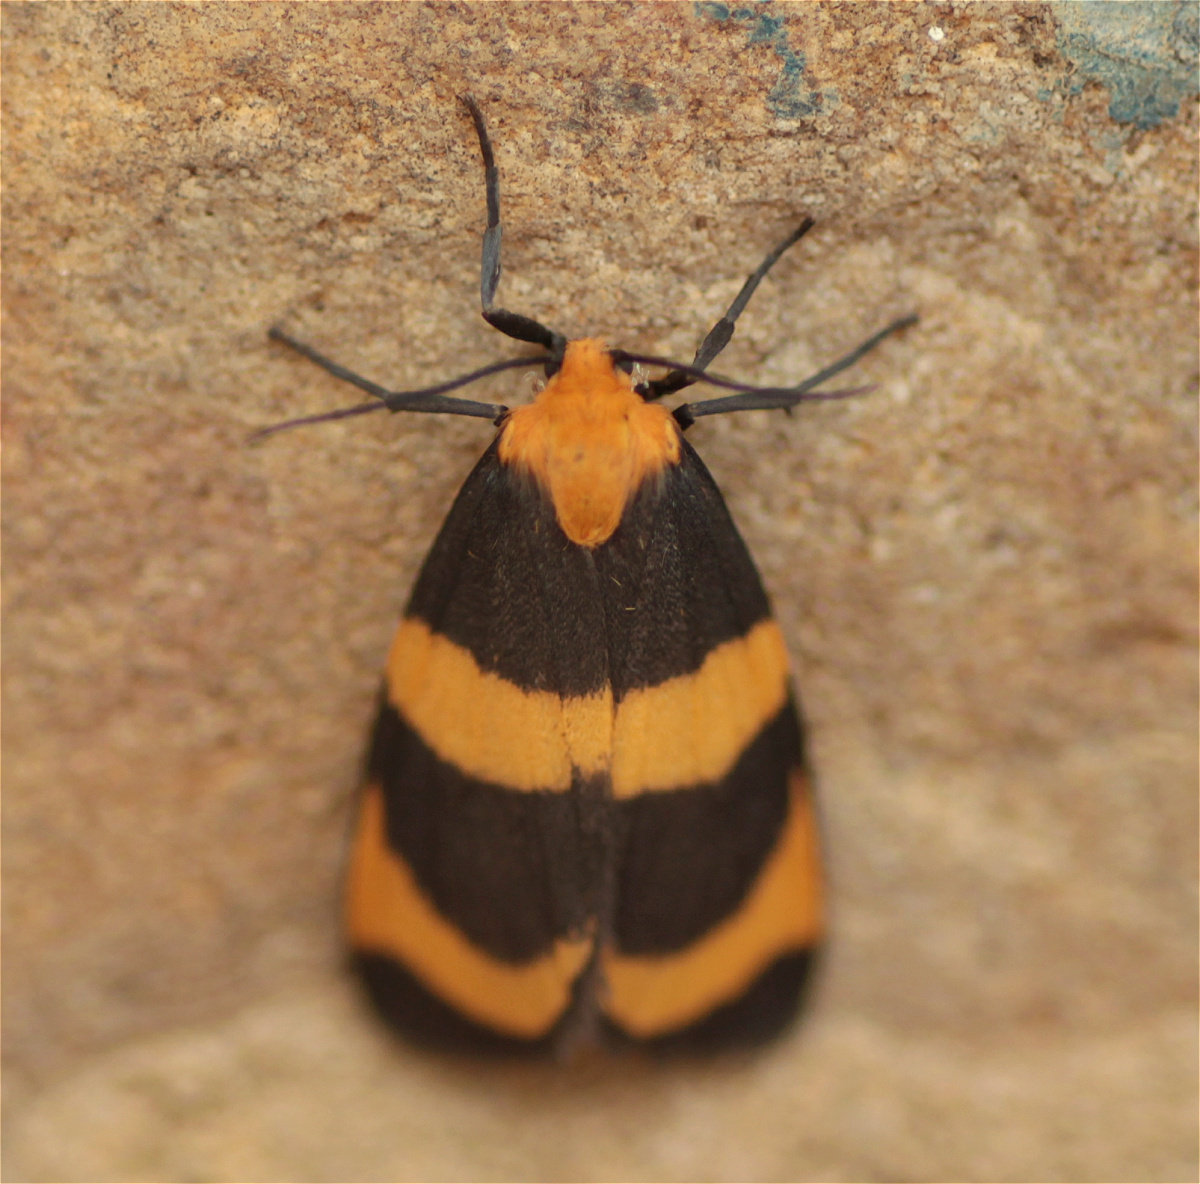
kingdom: Animalia
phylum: Arthropoda
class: Insecta
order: Lepidoptera
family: Erebidae
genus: Eudesmia
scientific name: Eudesmia menea
